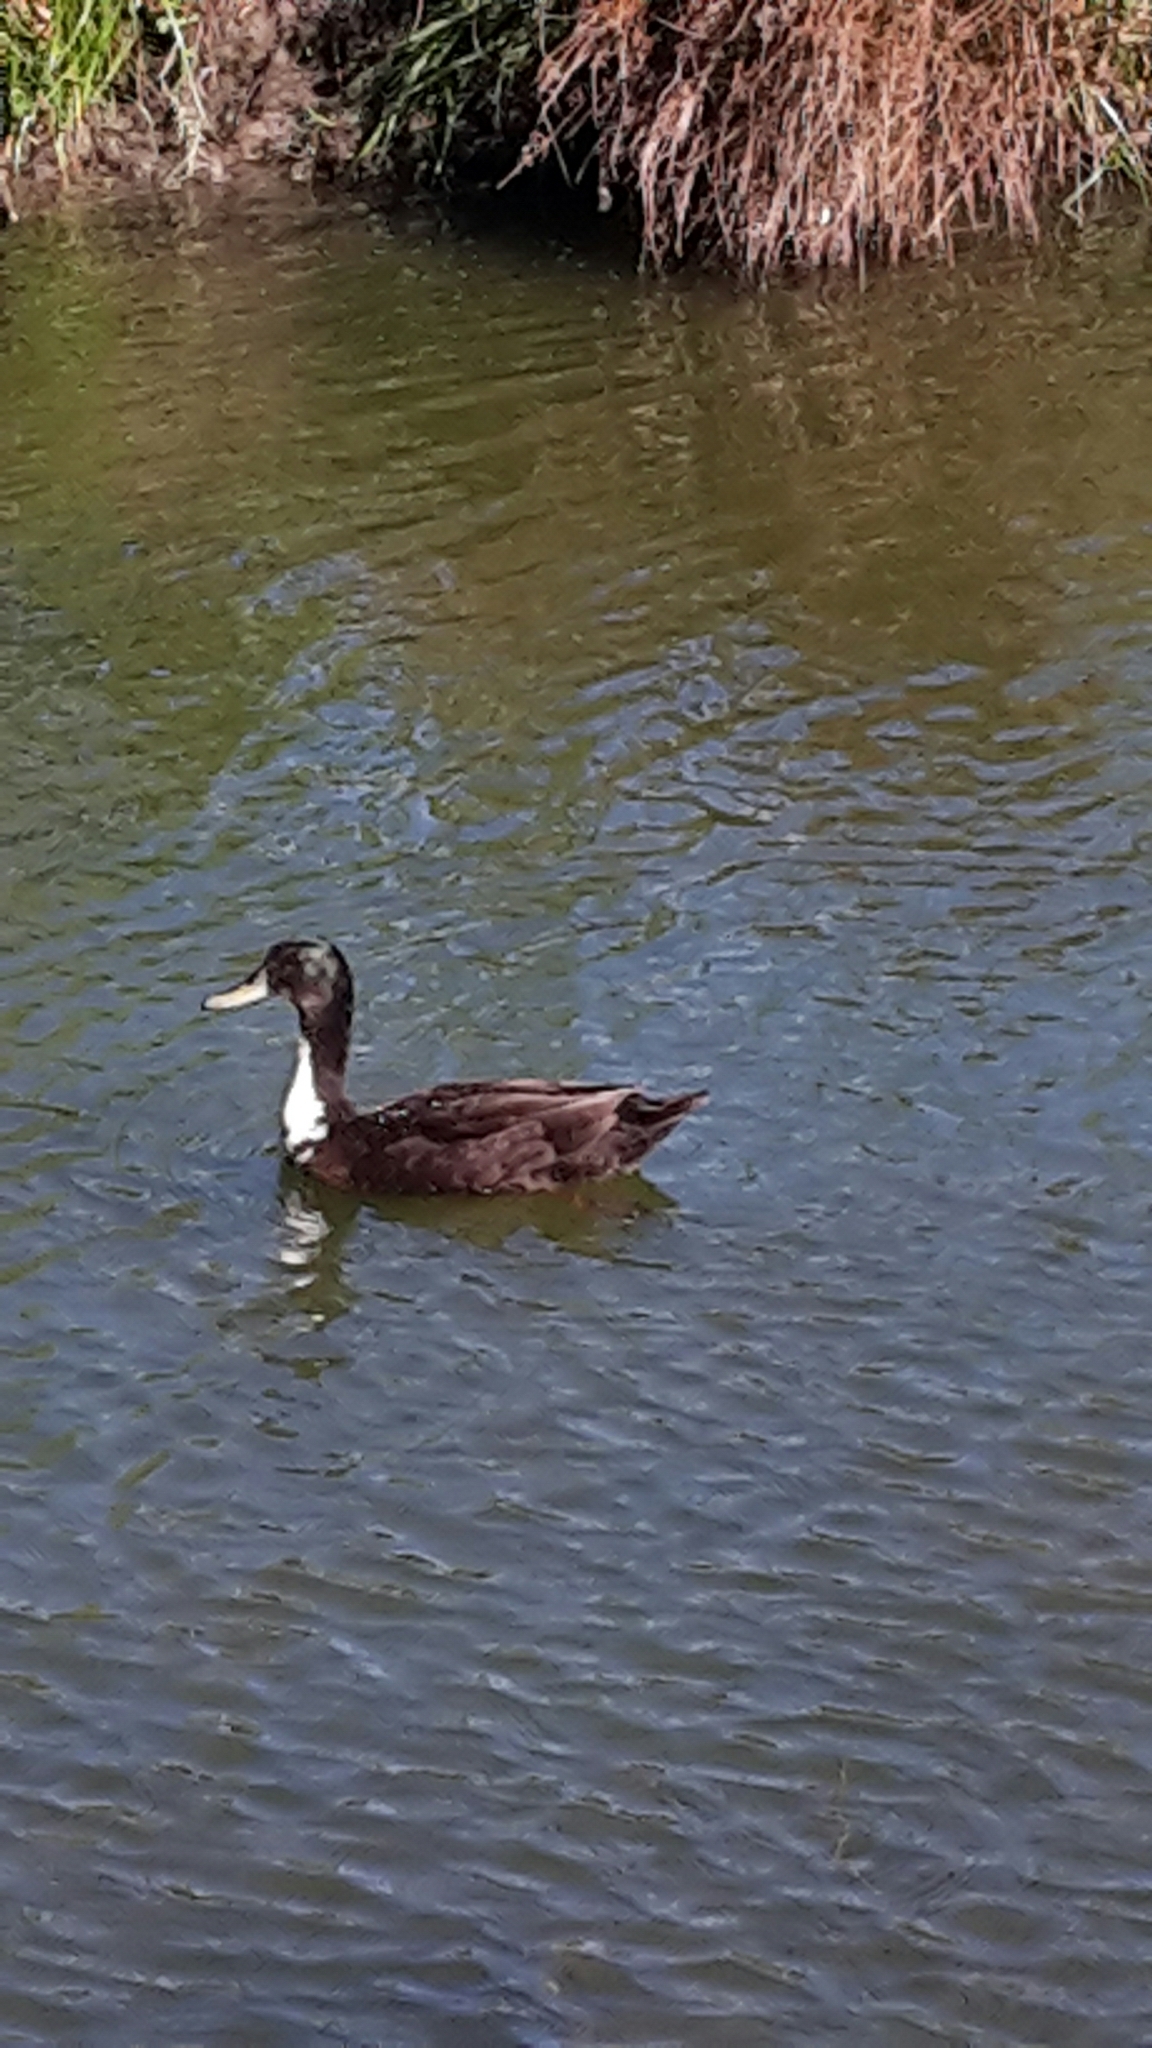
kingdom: Animalia
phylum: Chordata
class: Aves
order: Anseriformes
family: Anatidae
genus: Anas
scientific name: Anas platyrhynchos
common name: Mallard
